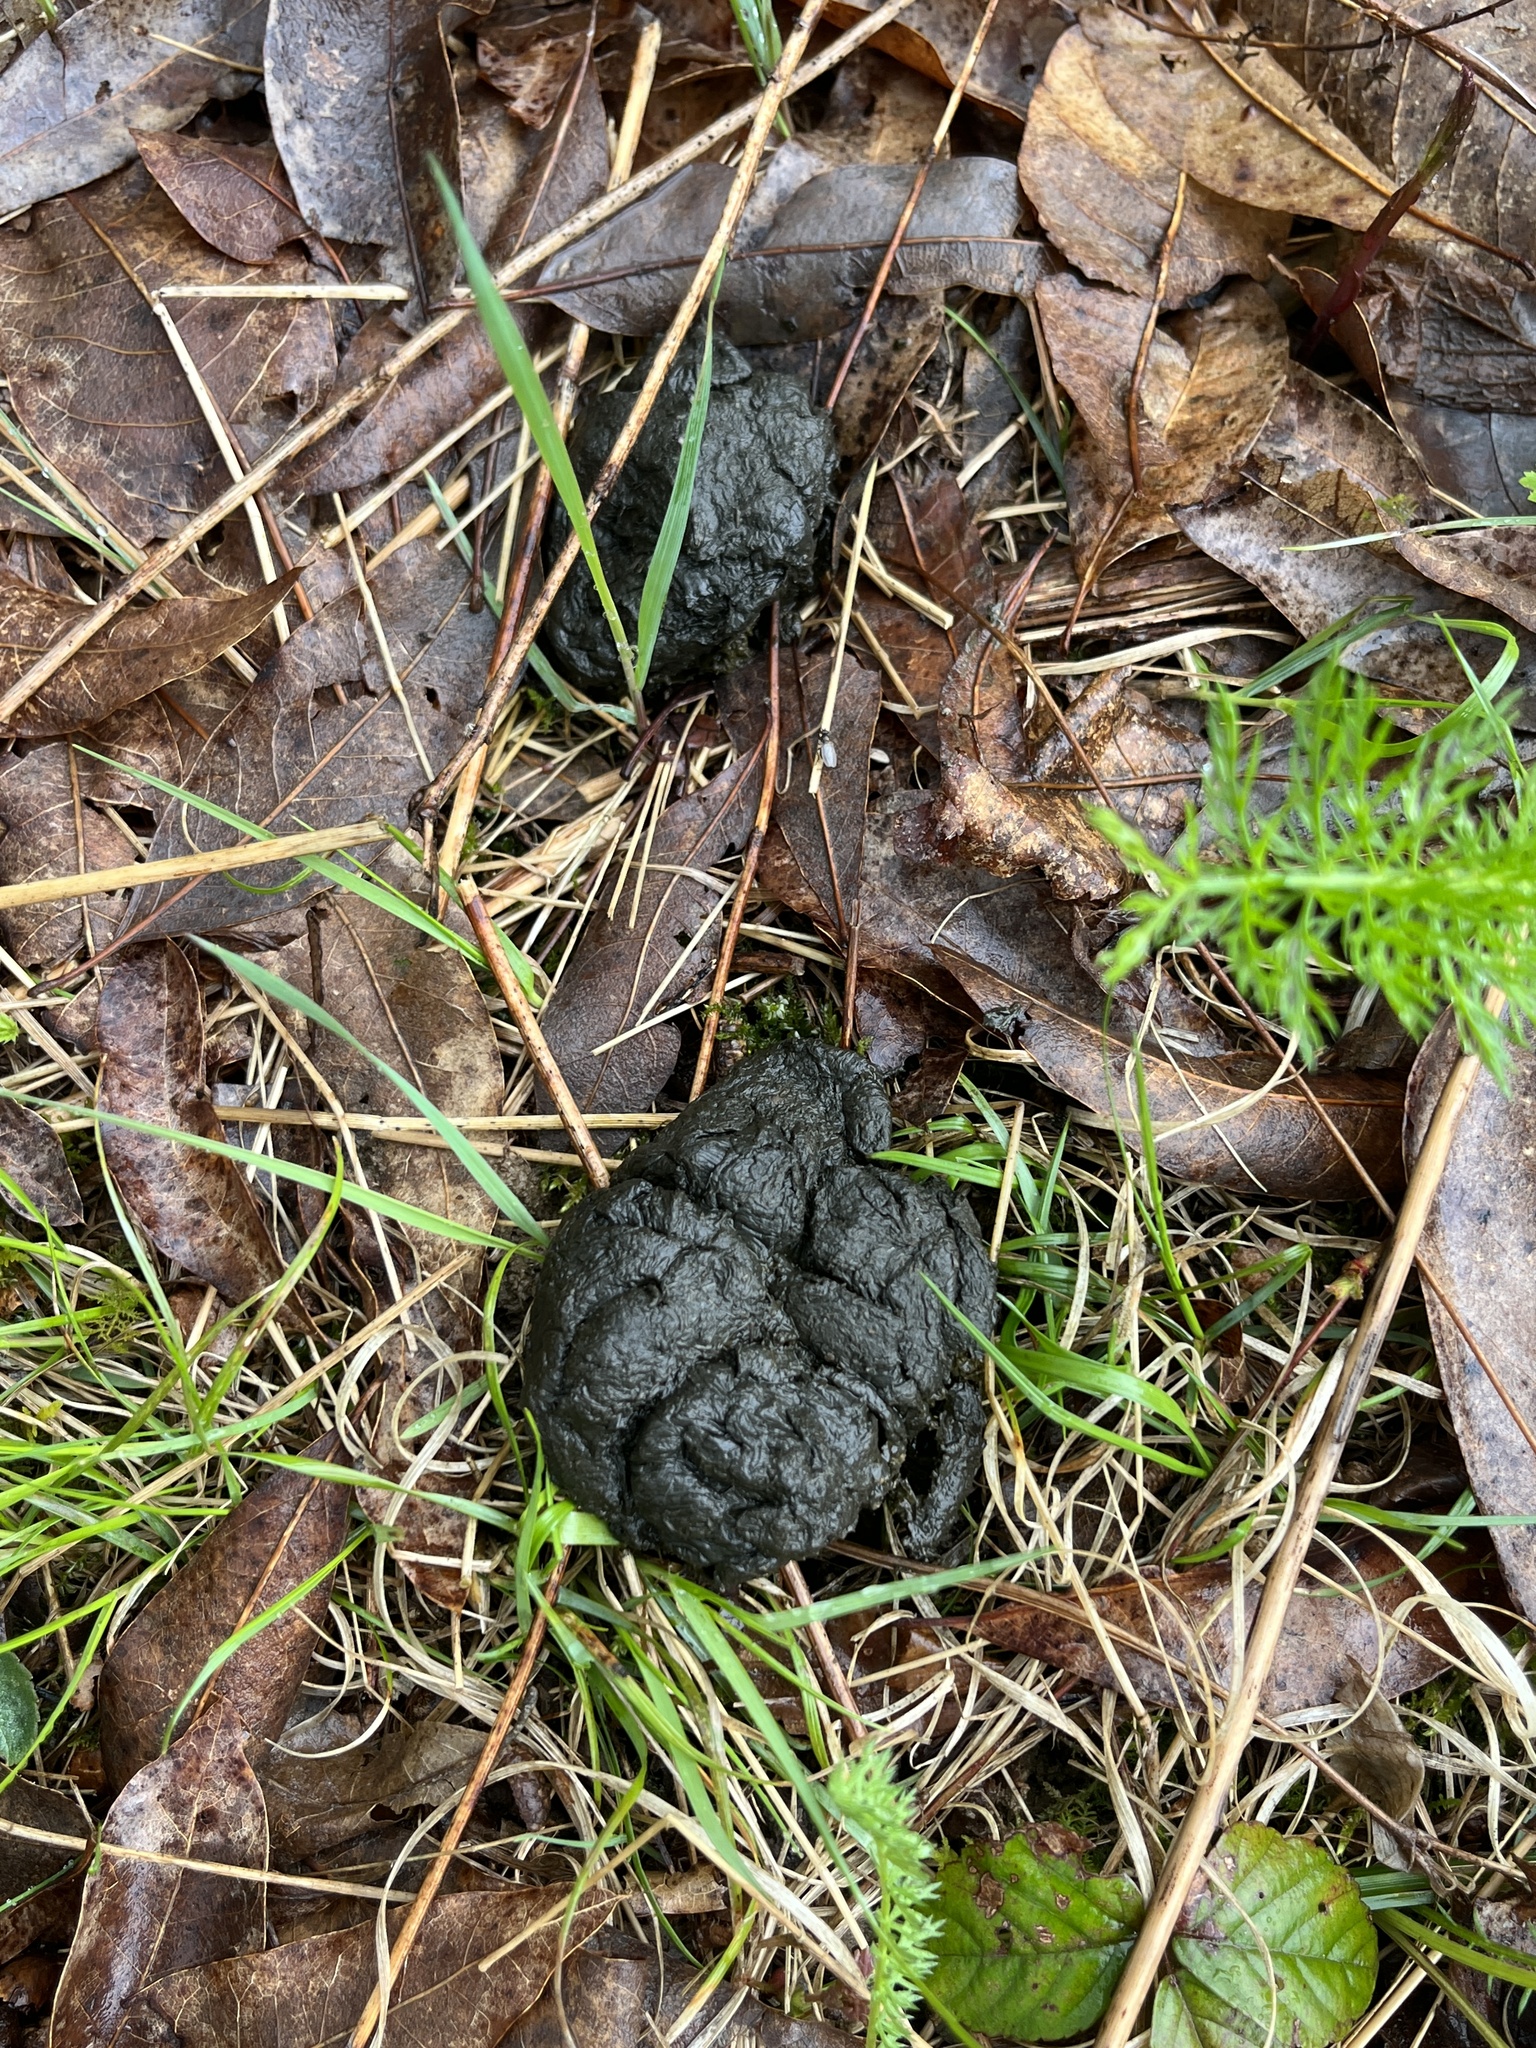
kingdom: Animalia
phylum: Chordata
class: Mammalia
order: Artiodactyla
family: Cervidae
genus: Odocoileus
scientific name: Odocoileus virginianus
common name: White-tailed deer
